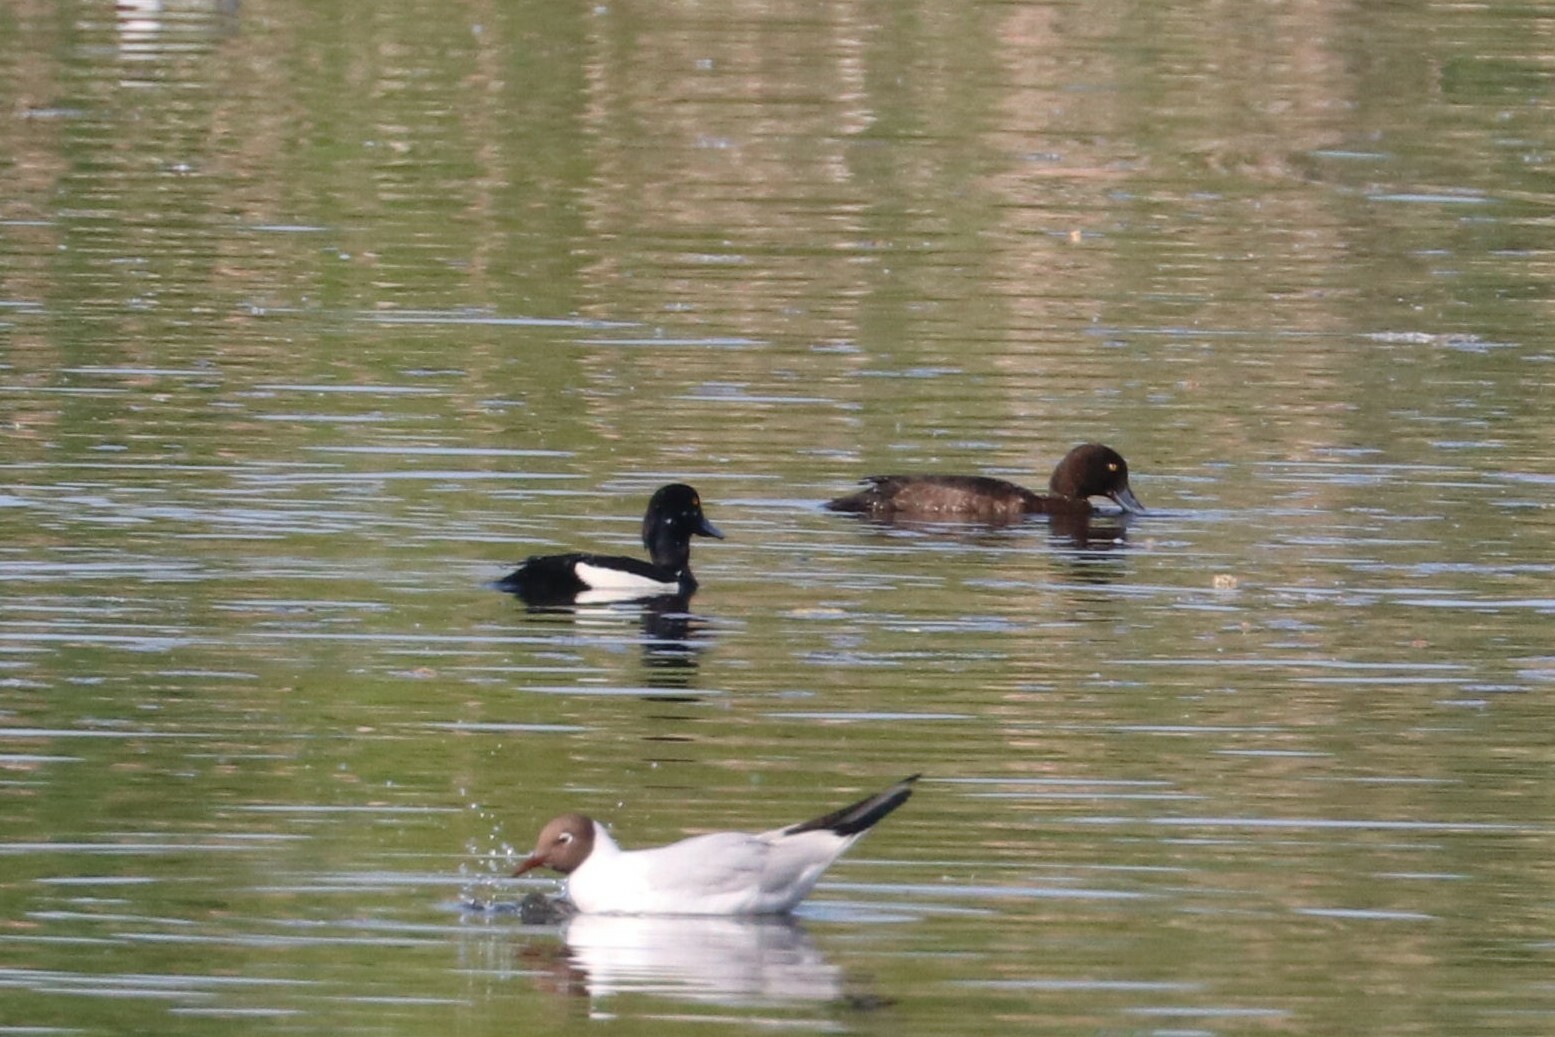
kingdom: Animalia
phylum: Chordata
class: Aves
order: Anseriformes
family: Anatidae
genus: Aythya
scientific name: Aythya fuligula
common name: Tufted duck
